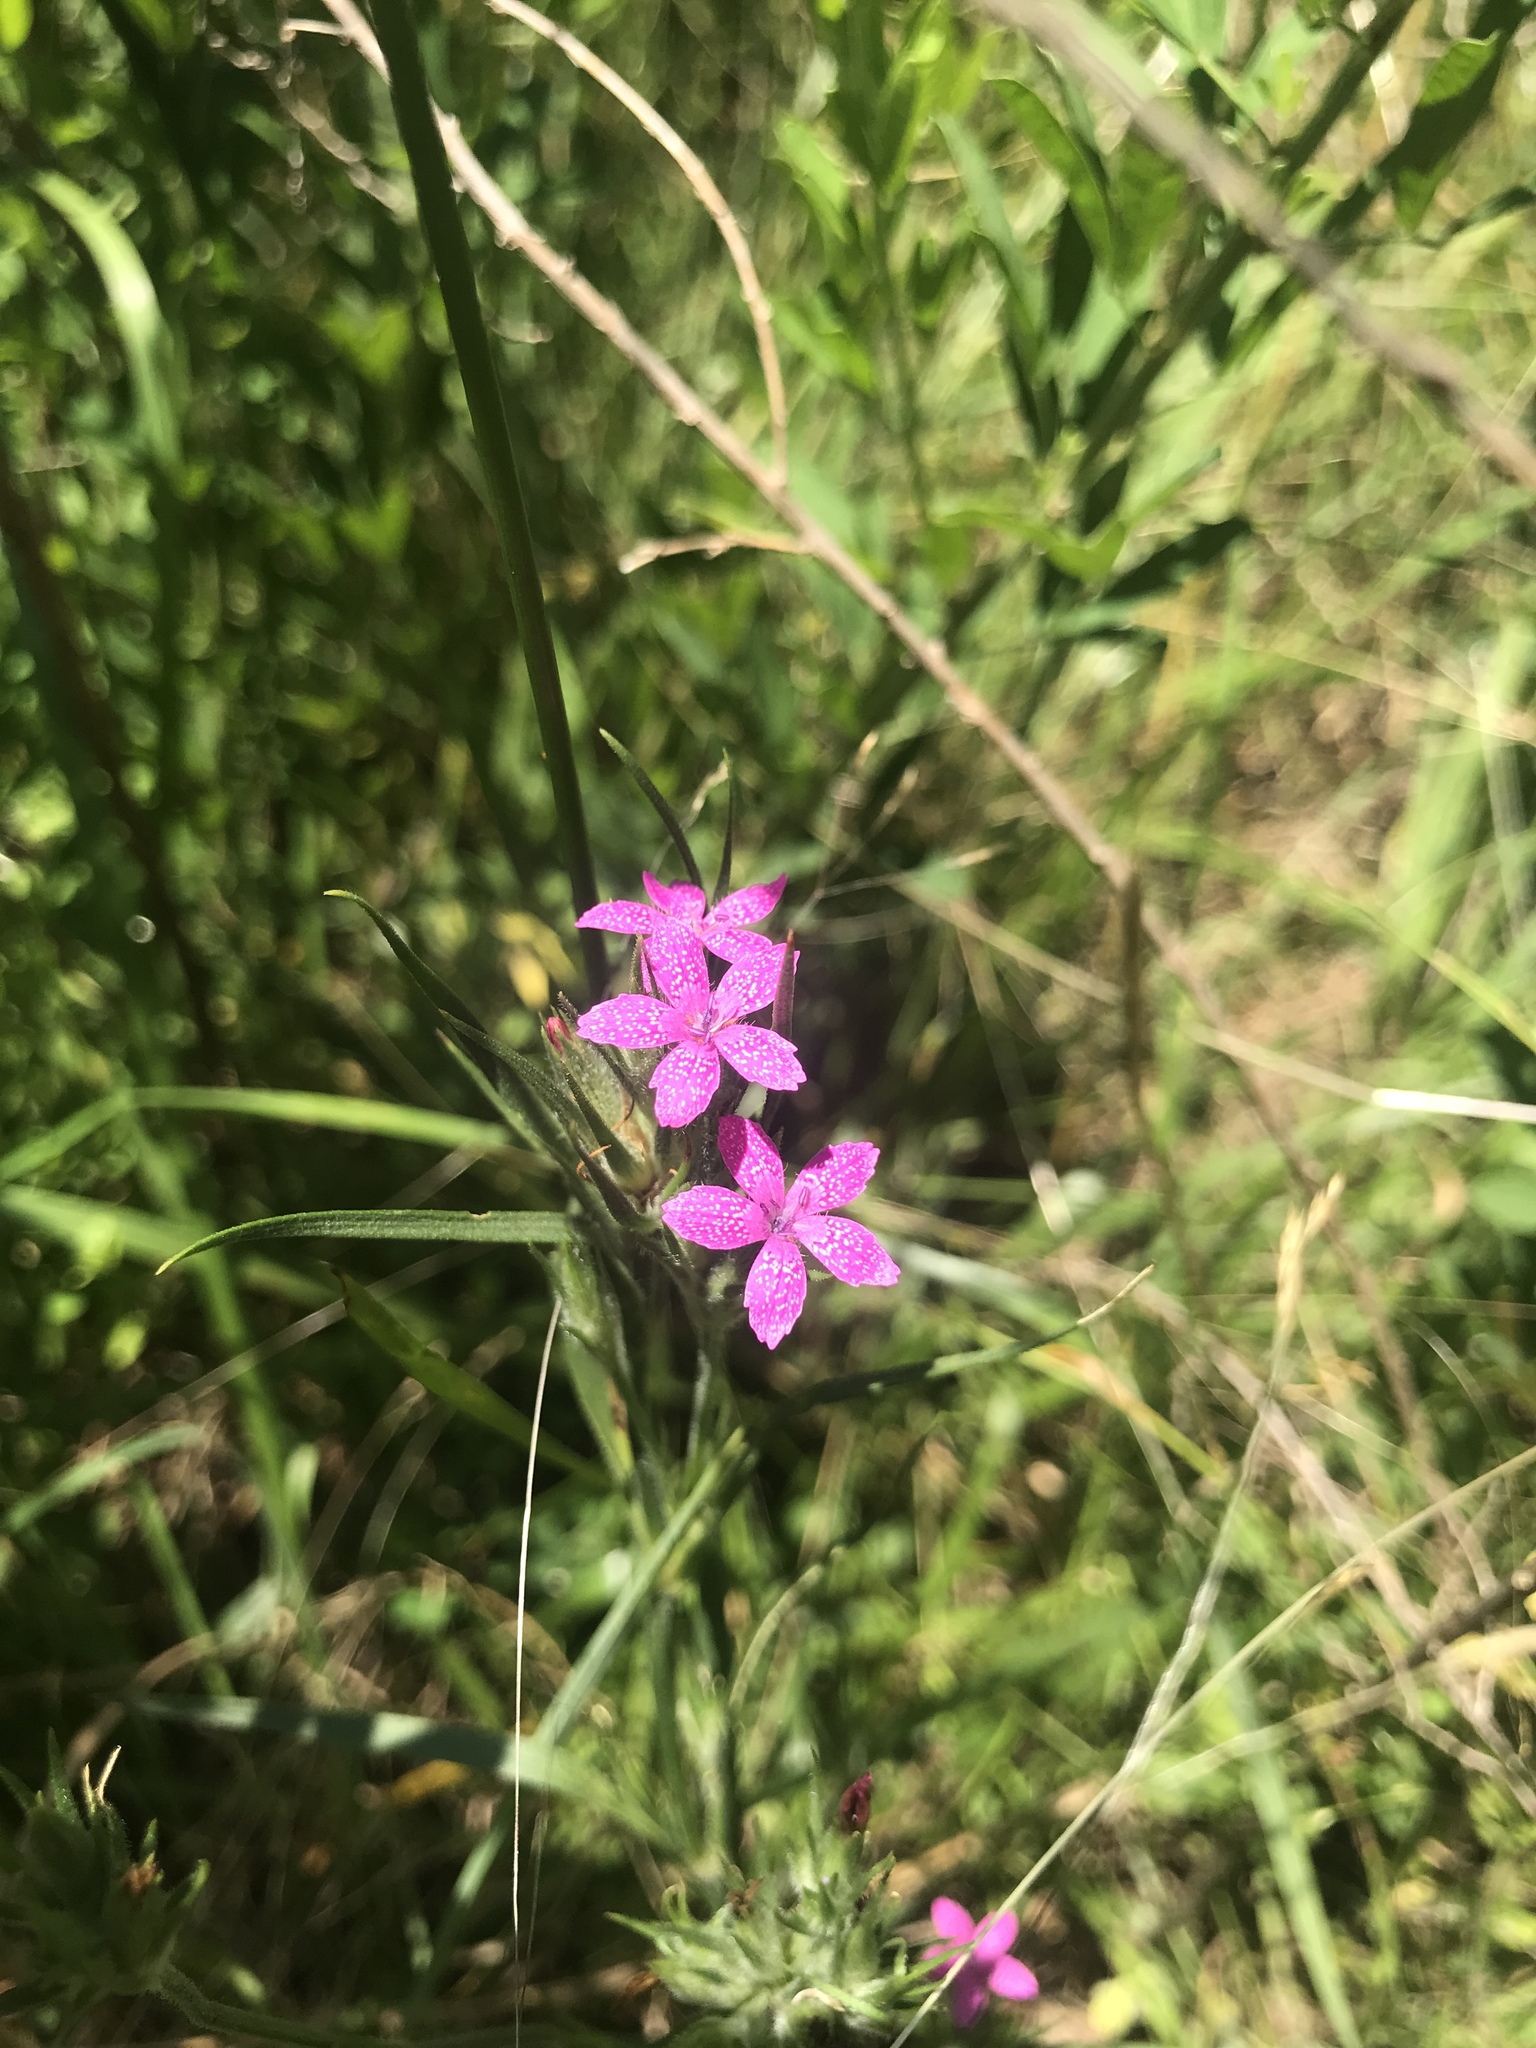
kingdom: Plantae
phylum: Tracheophyta
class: Magnoliopsida
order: Caryophyllales
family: Caryophyllaceae
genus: Dianthus
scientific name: Dianthus armeria
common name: Deptford pink
